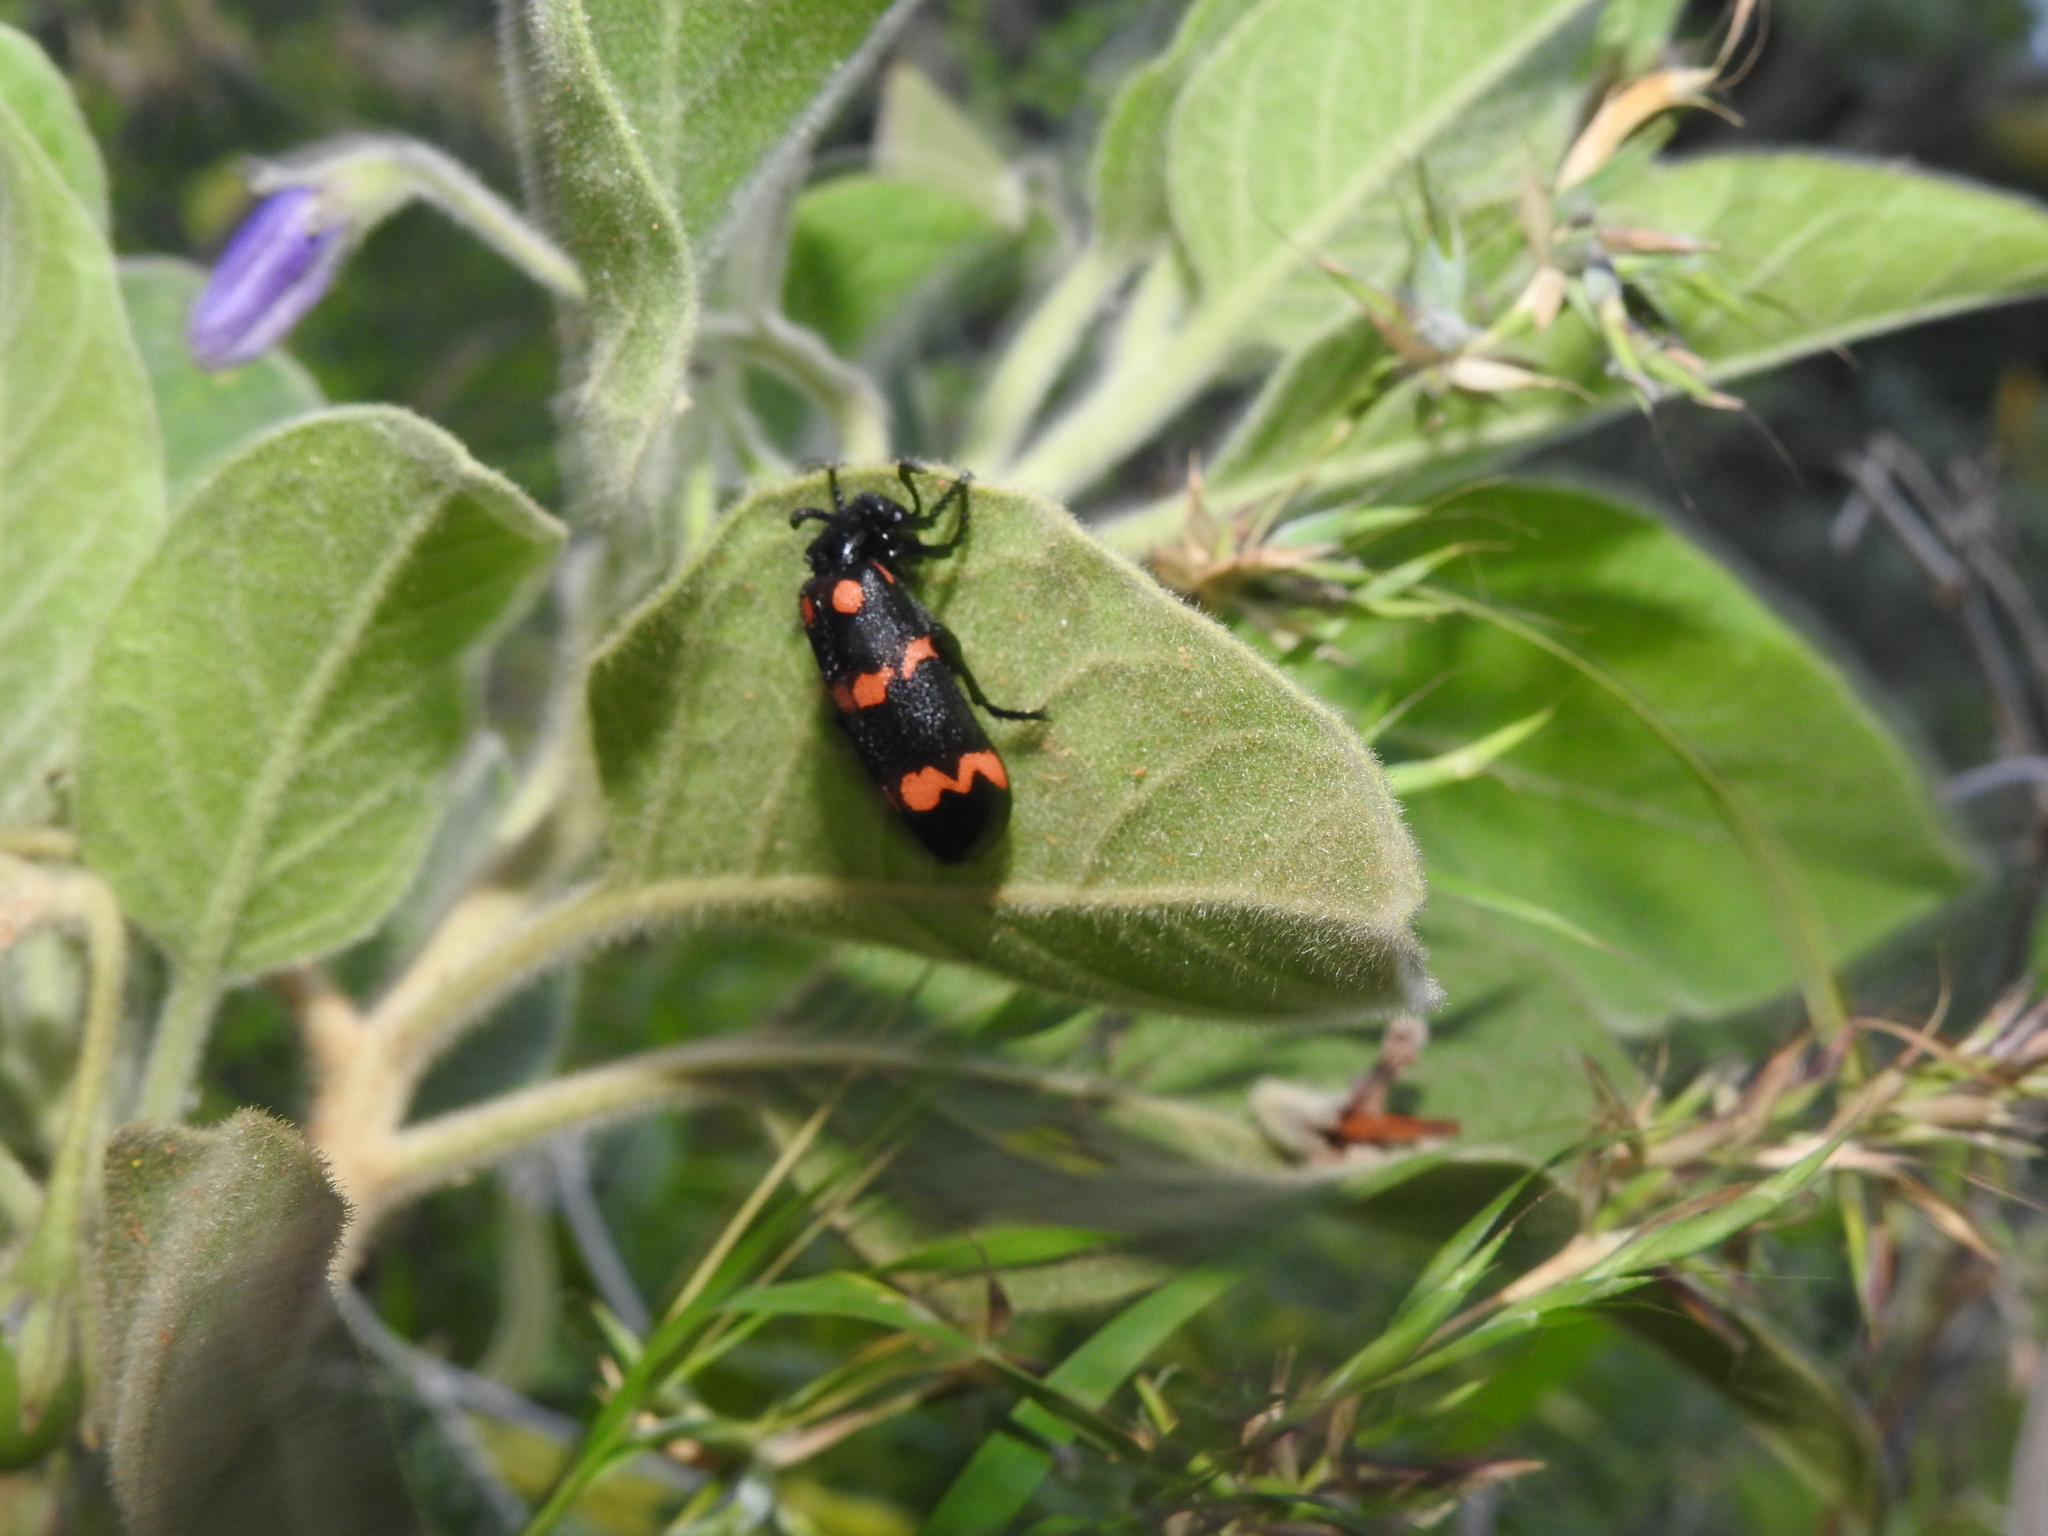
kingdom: Plantae
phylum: Tracheophyta
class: Magnoliopsida
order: Solanales
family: Solanaceae
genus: Solanum
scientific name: Solanum pubescens
